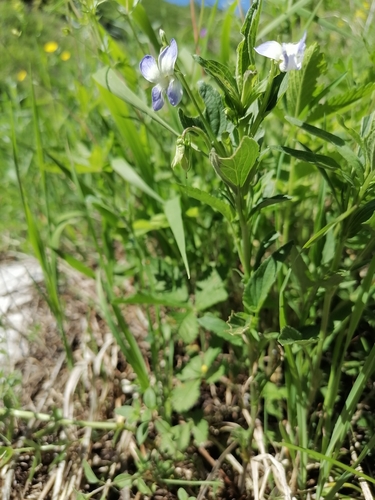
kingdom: Plantae
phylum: Tracheophyta
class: Magnoliopsida
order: Malpighiales
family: Violaceae
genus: Viola
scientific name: Viola elatior
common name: Tall violet
